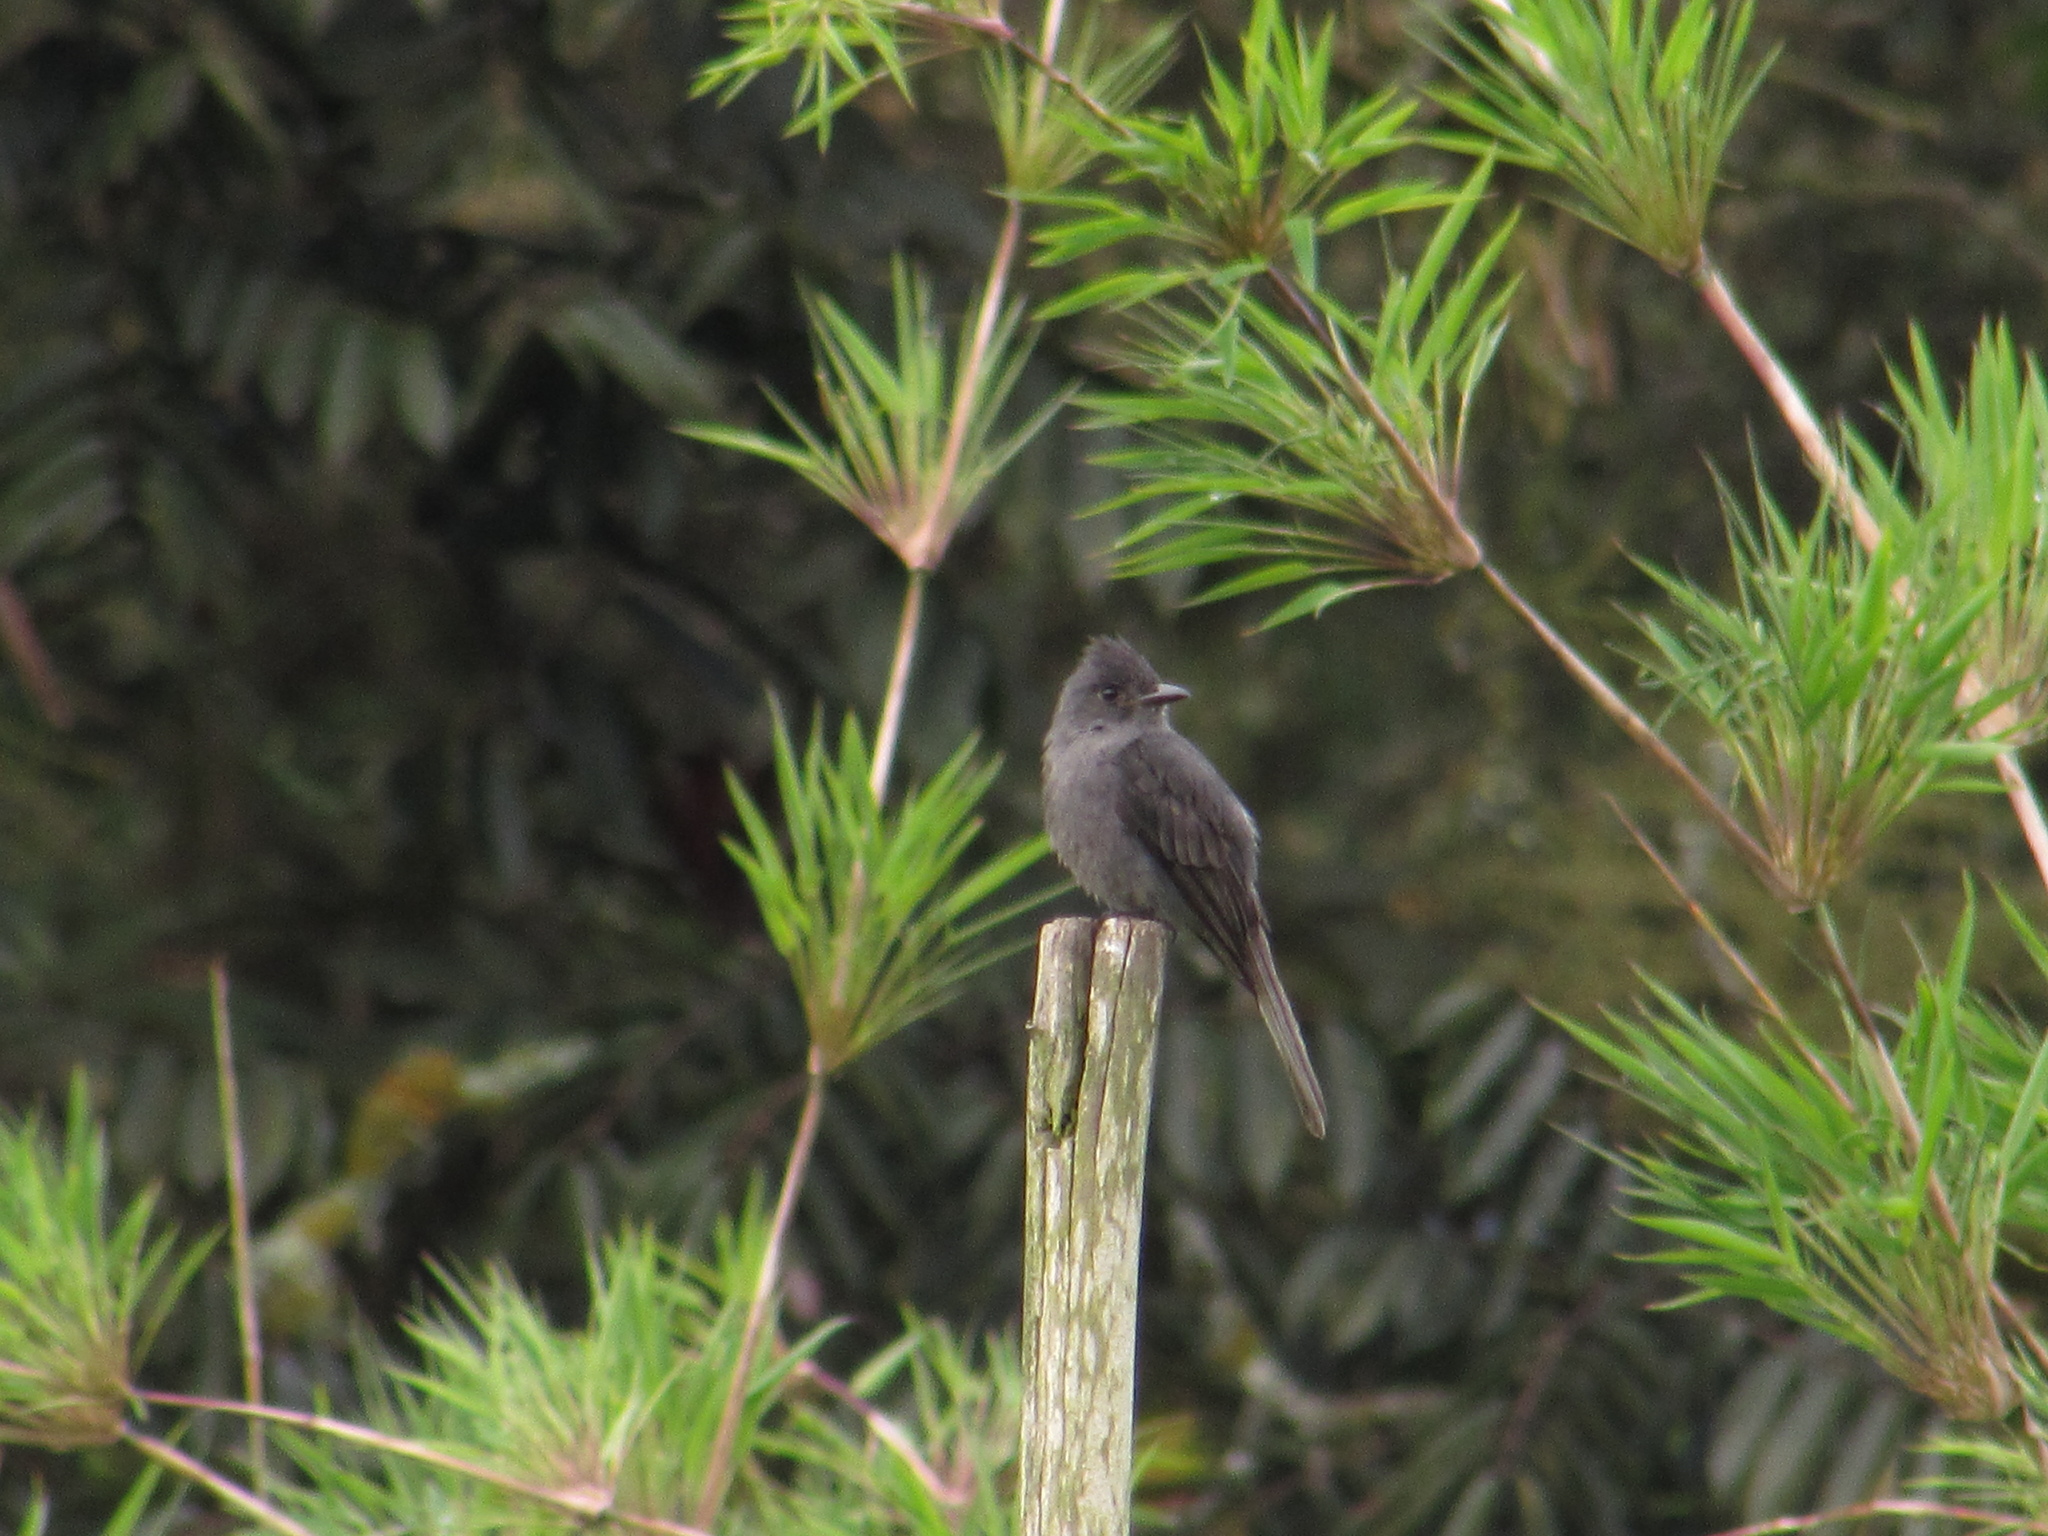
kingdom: Animalia
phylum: Chordata
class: Aves
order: Passeriformes
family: Tyrannidae
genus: Contopus
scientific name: Contopus fumigatus
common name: Smoke-colored pewee
